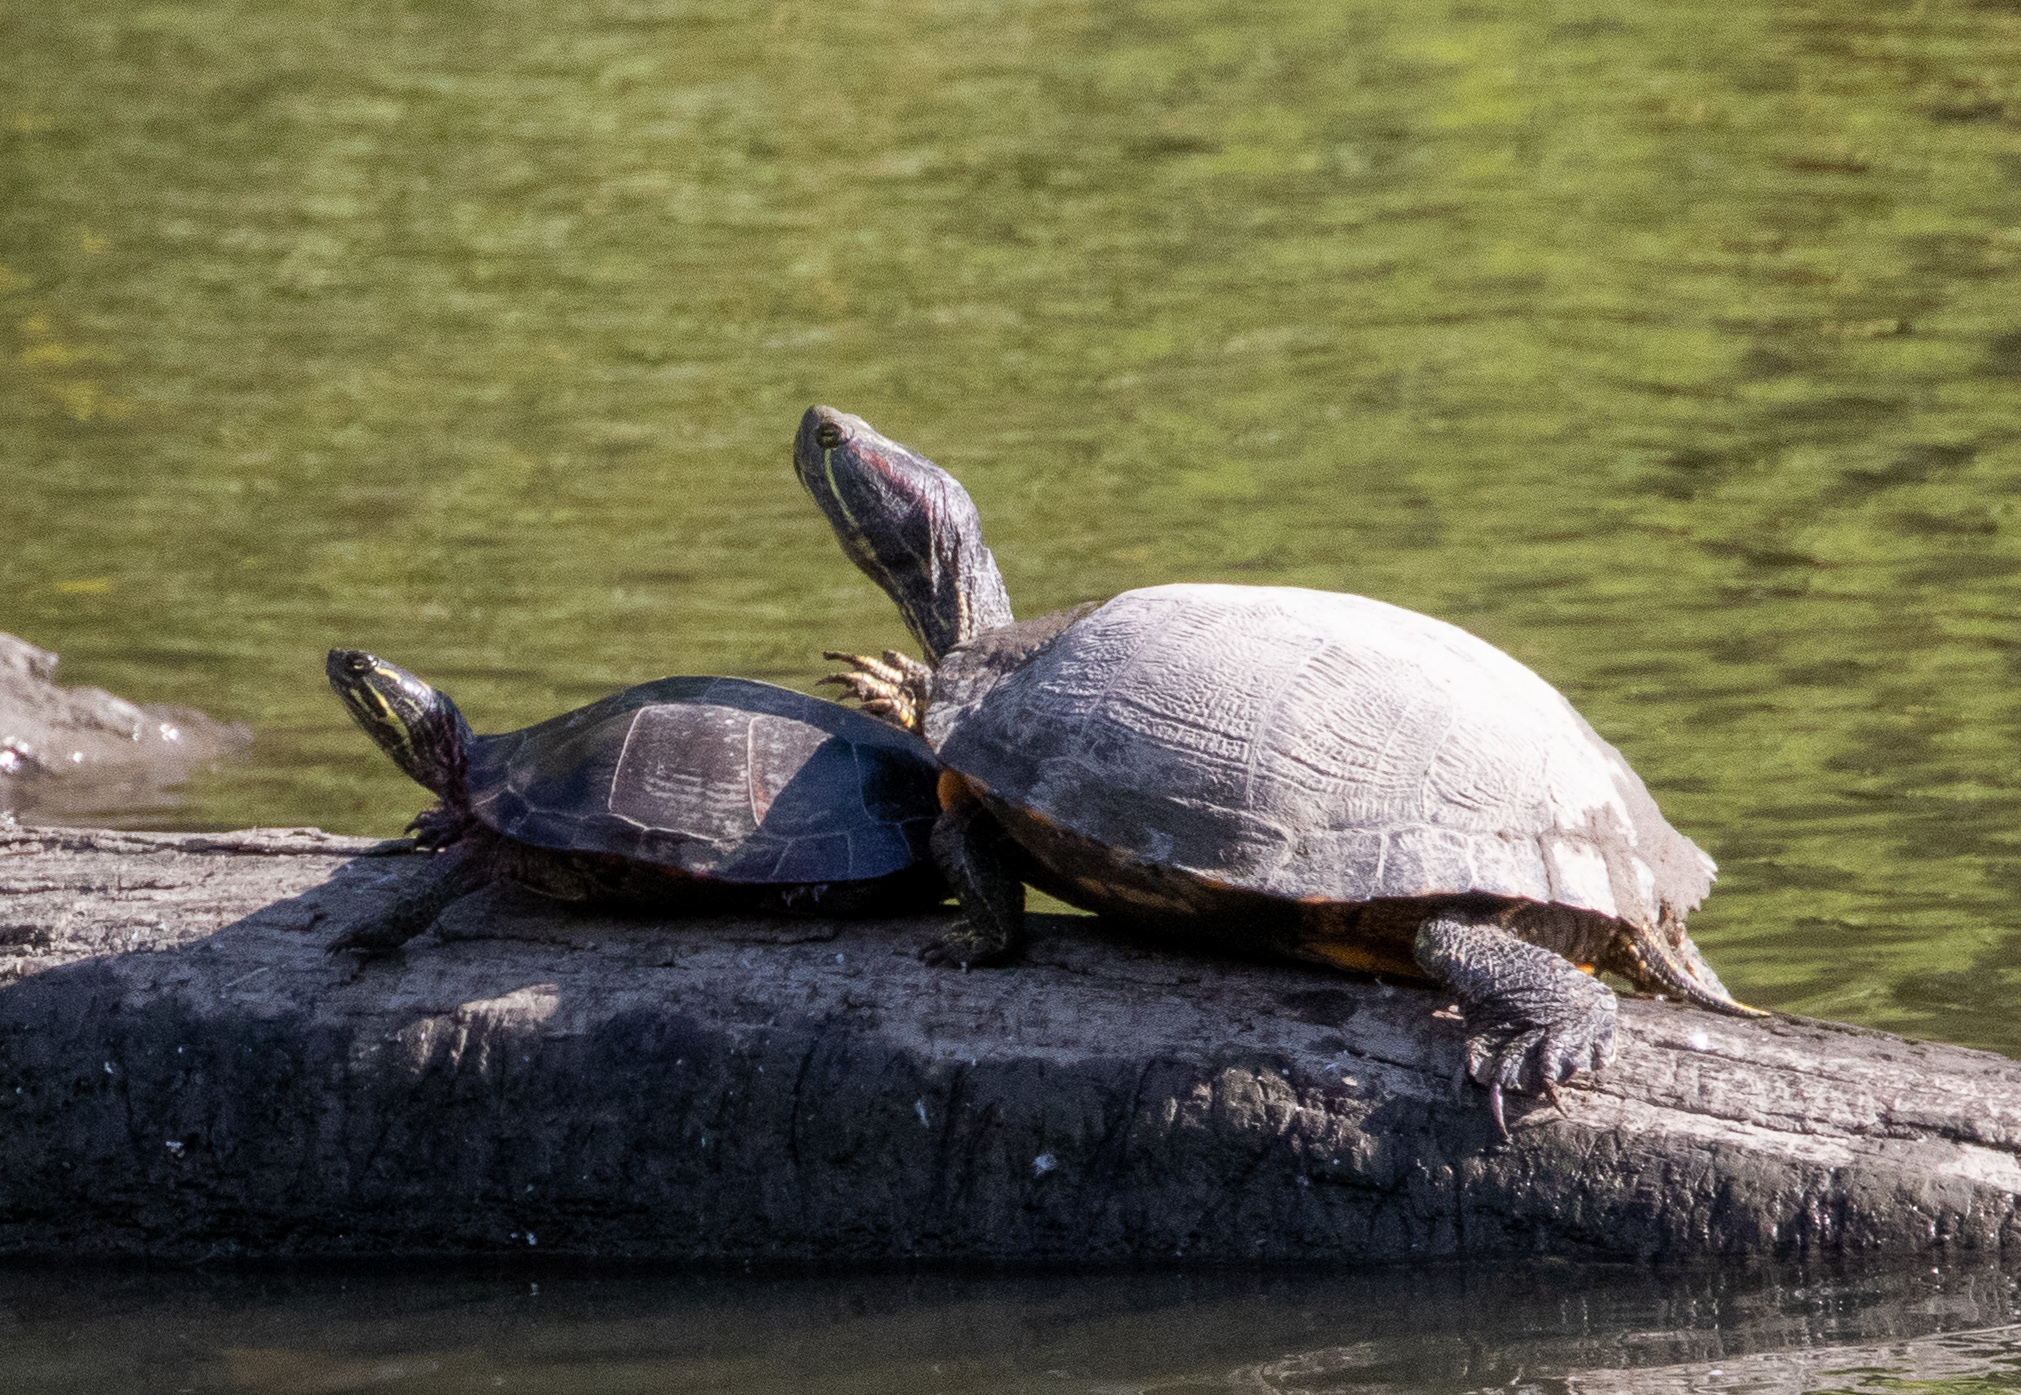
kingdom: Animalia
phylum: Chordata
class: Testudines
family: Emydidae
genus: Trachemys
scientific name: Trachemys scripta
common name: Slider
